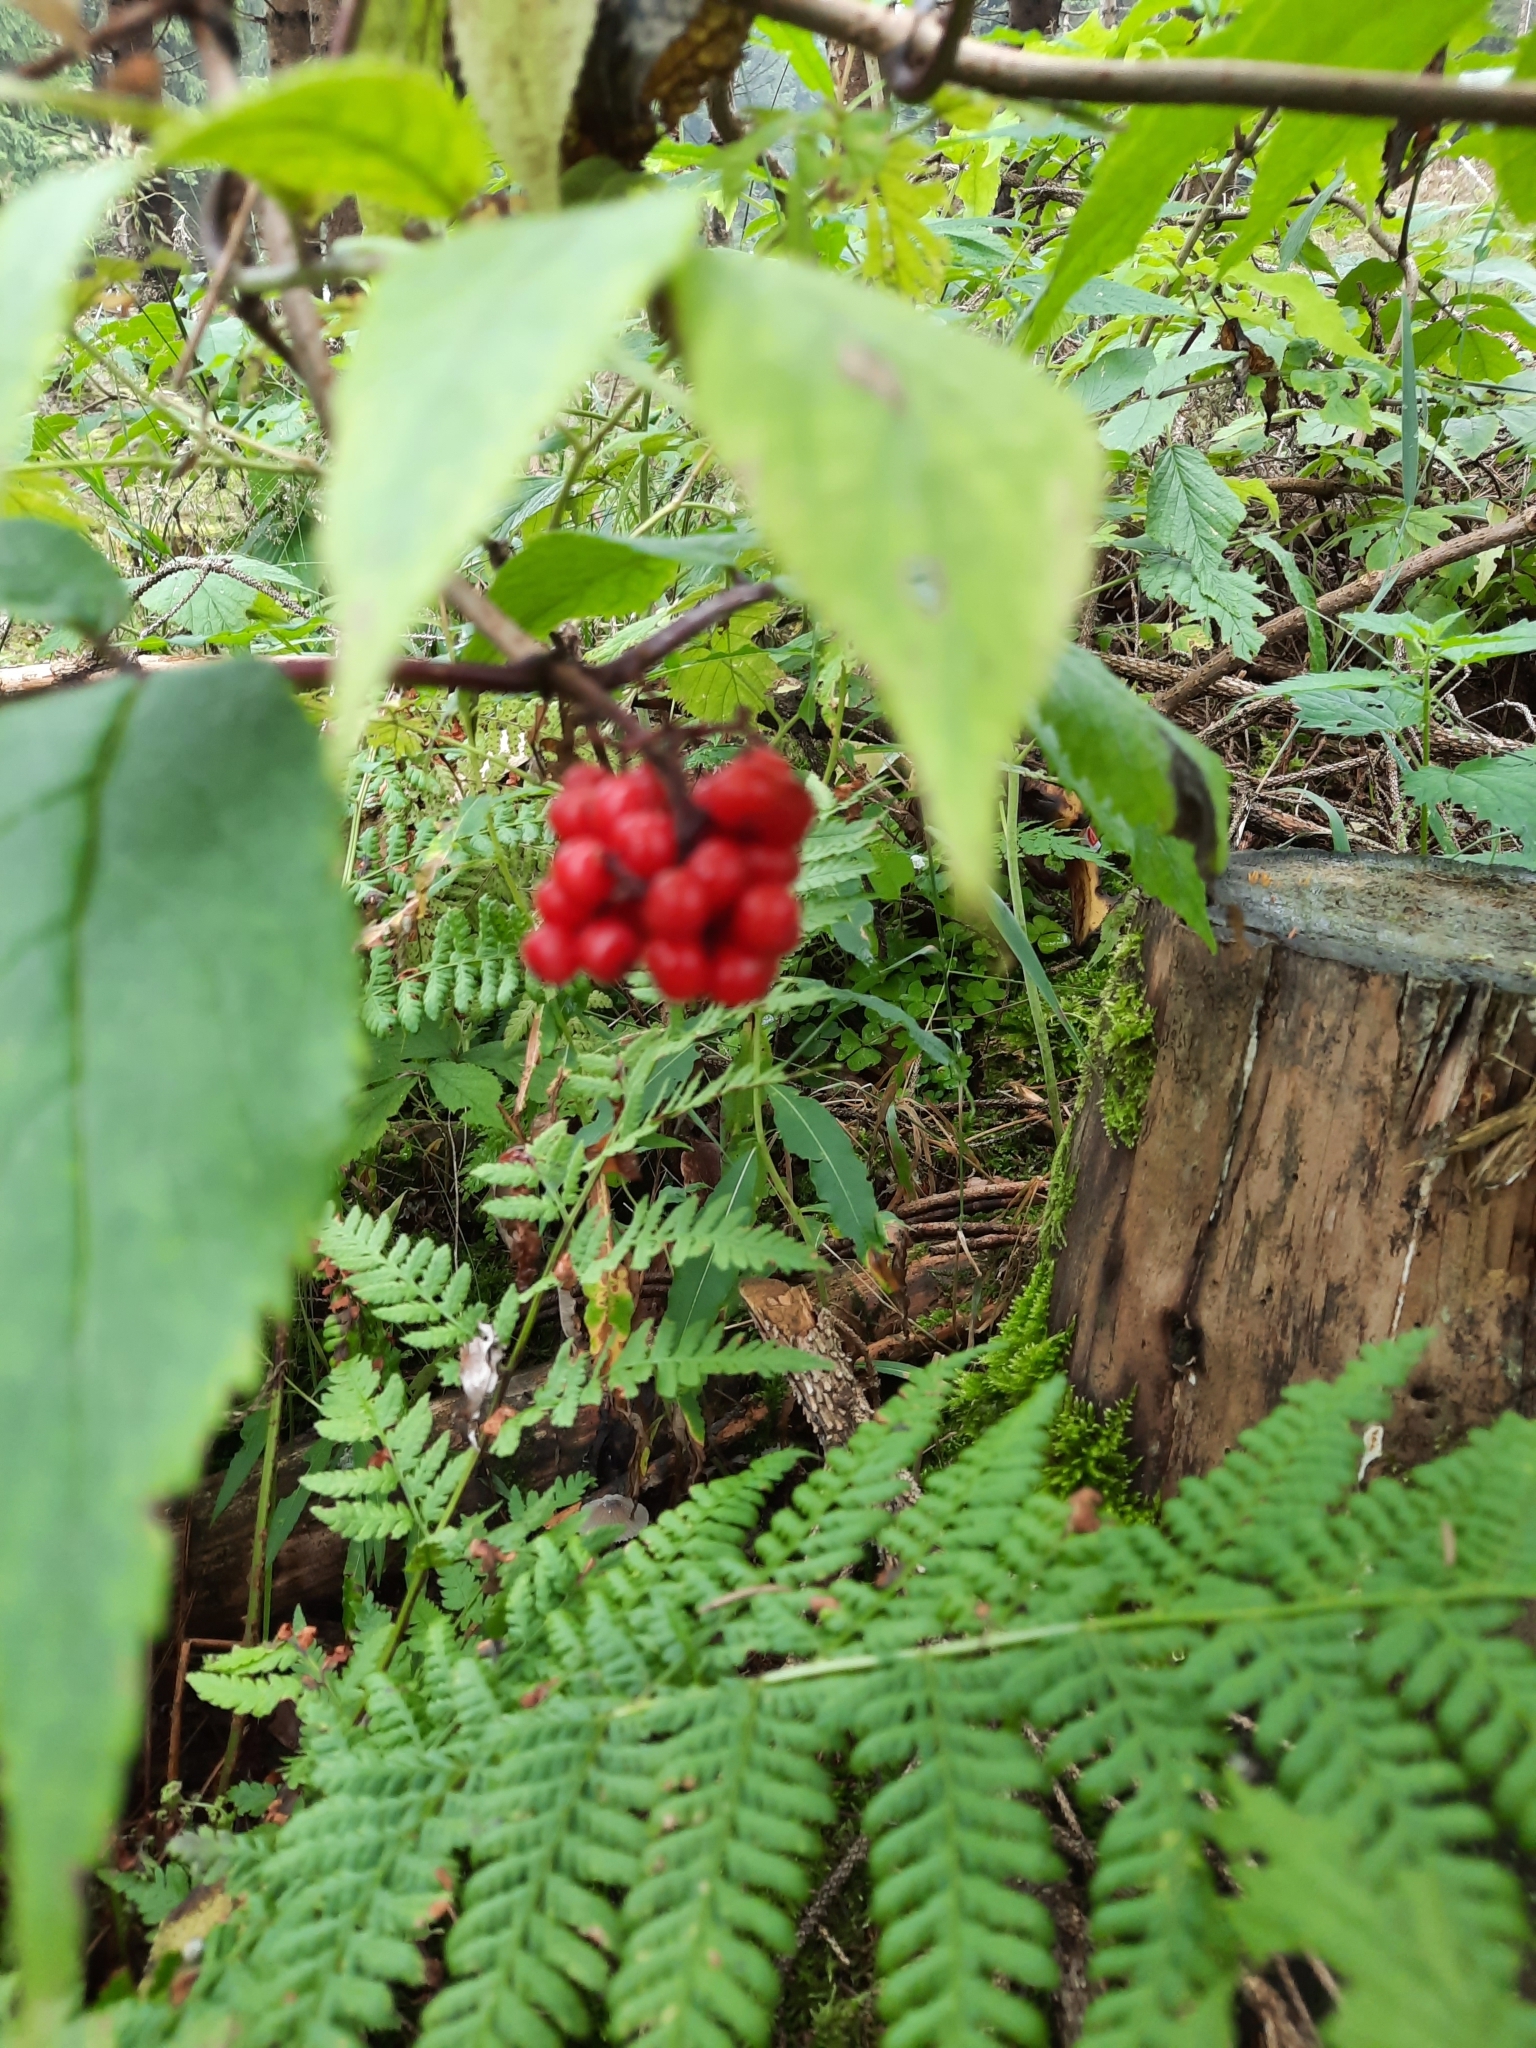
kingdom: Plantae
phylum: Tracheophyta
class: Magnoliopsida
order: Dipsacales
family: Viburnaceae
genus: Sambucus
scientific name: Sambucus racemosa
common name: Red-berried elder
